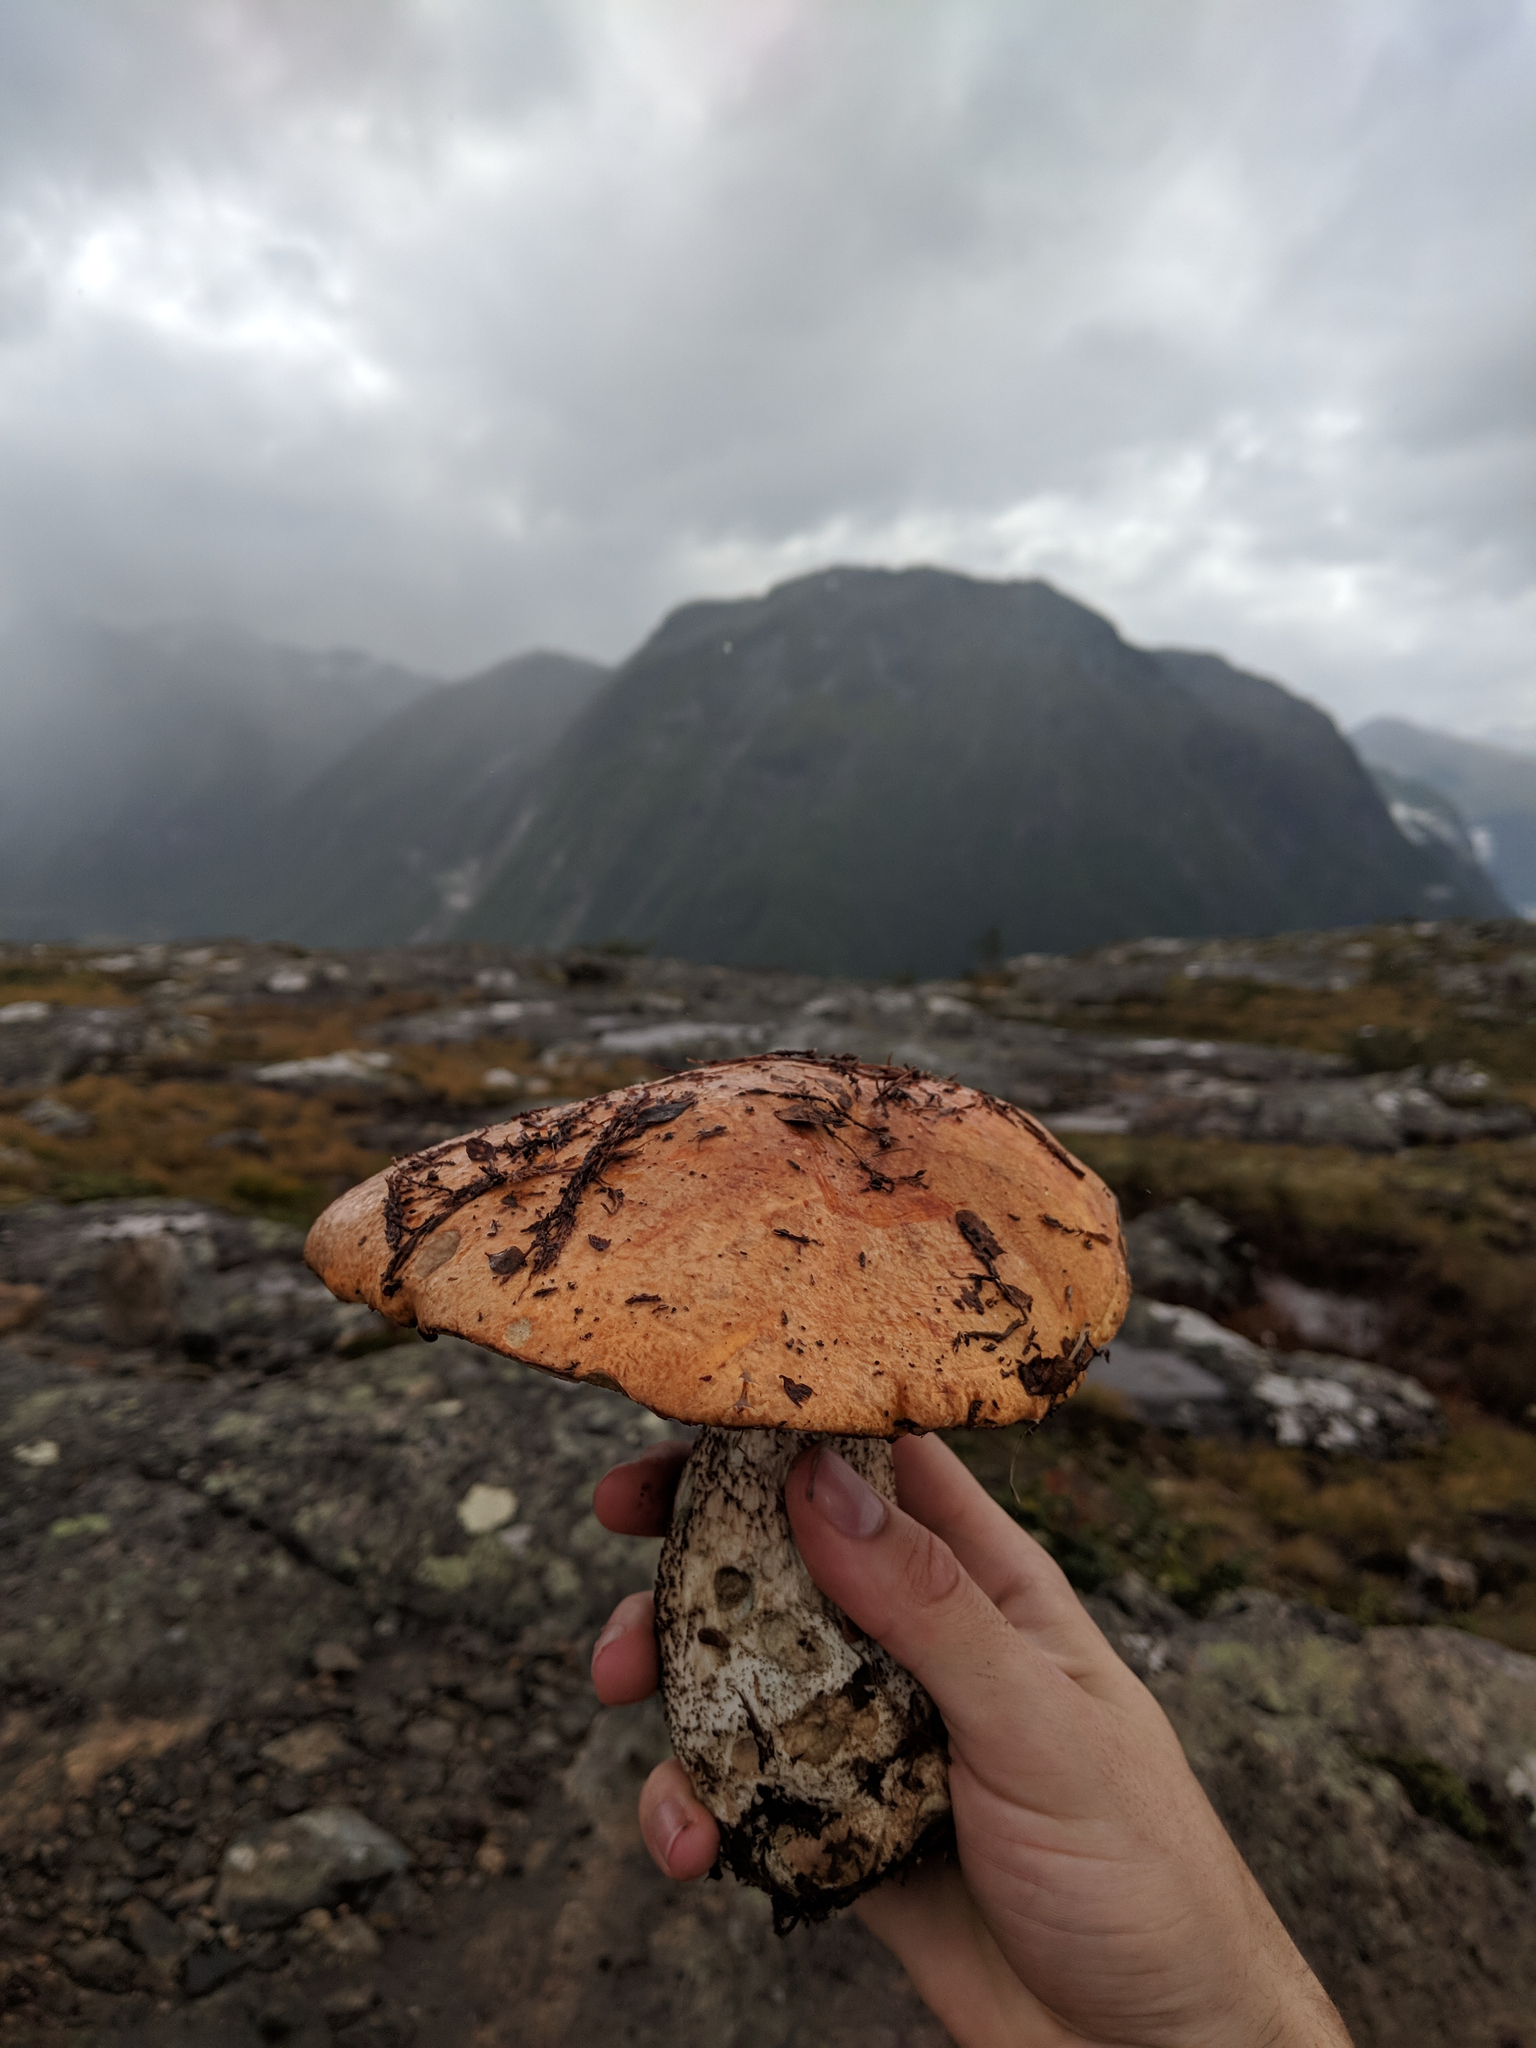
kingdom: Fungi
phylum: Basidiomycota
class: Agaricomycetes
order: Boletales
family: Boletaceae
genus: Leccinum
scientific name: Leccinum versipelle
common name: Orange birch bolete
